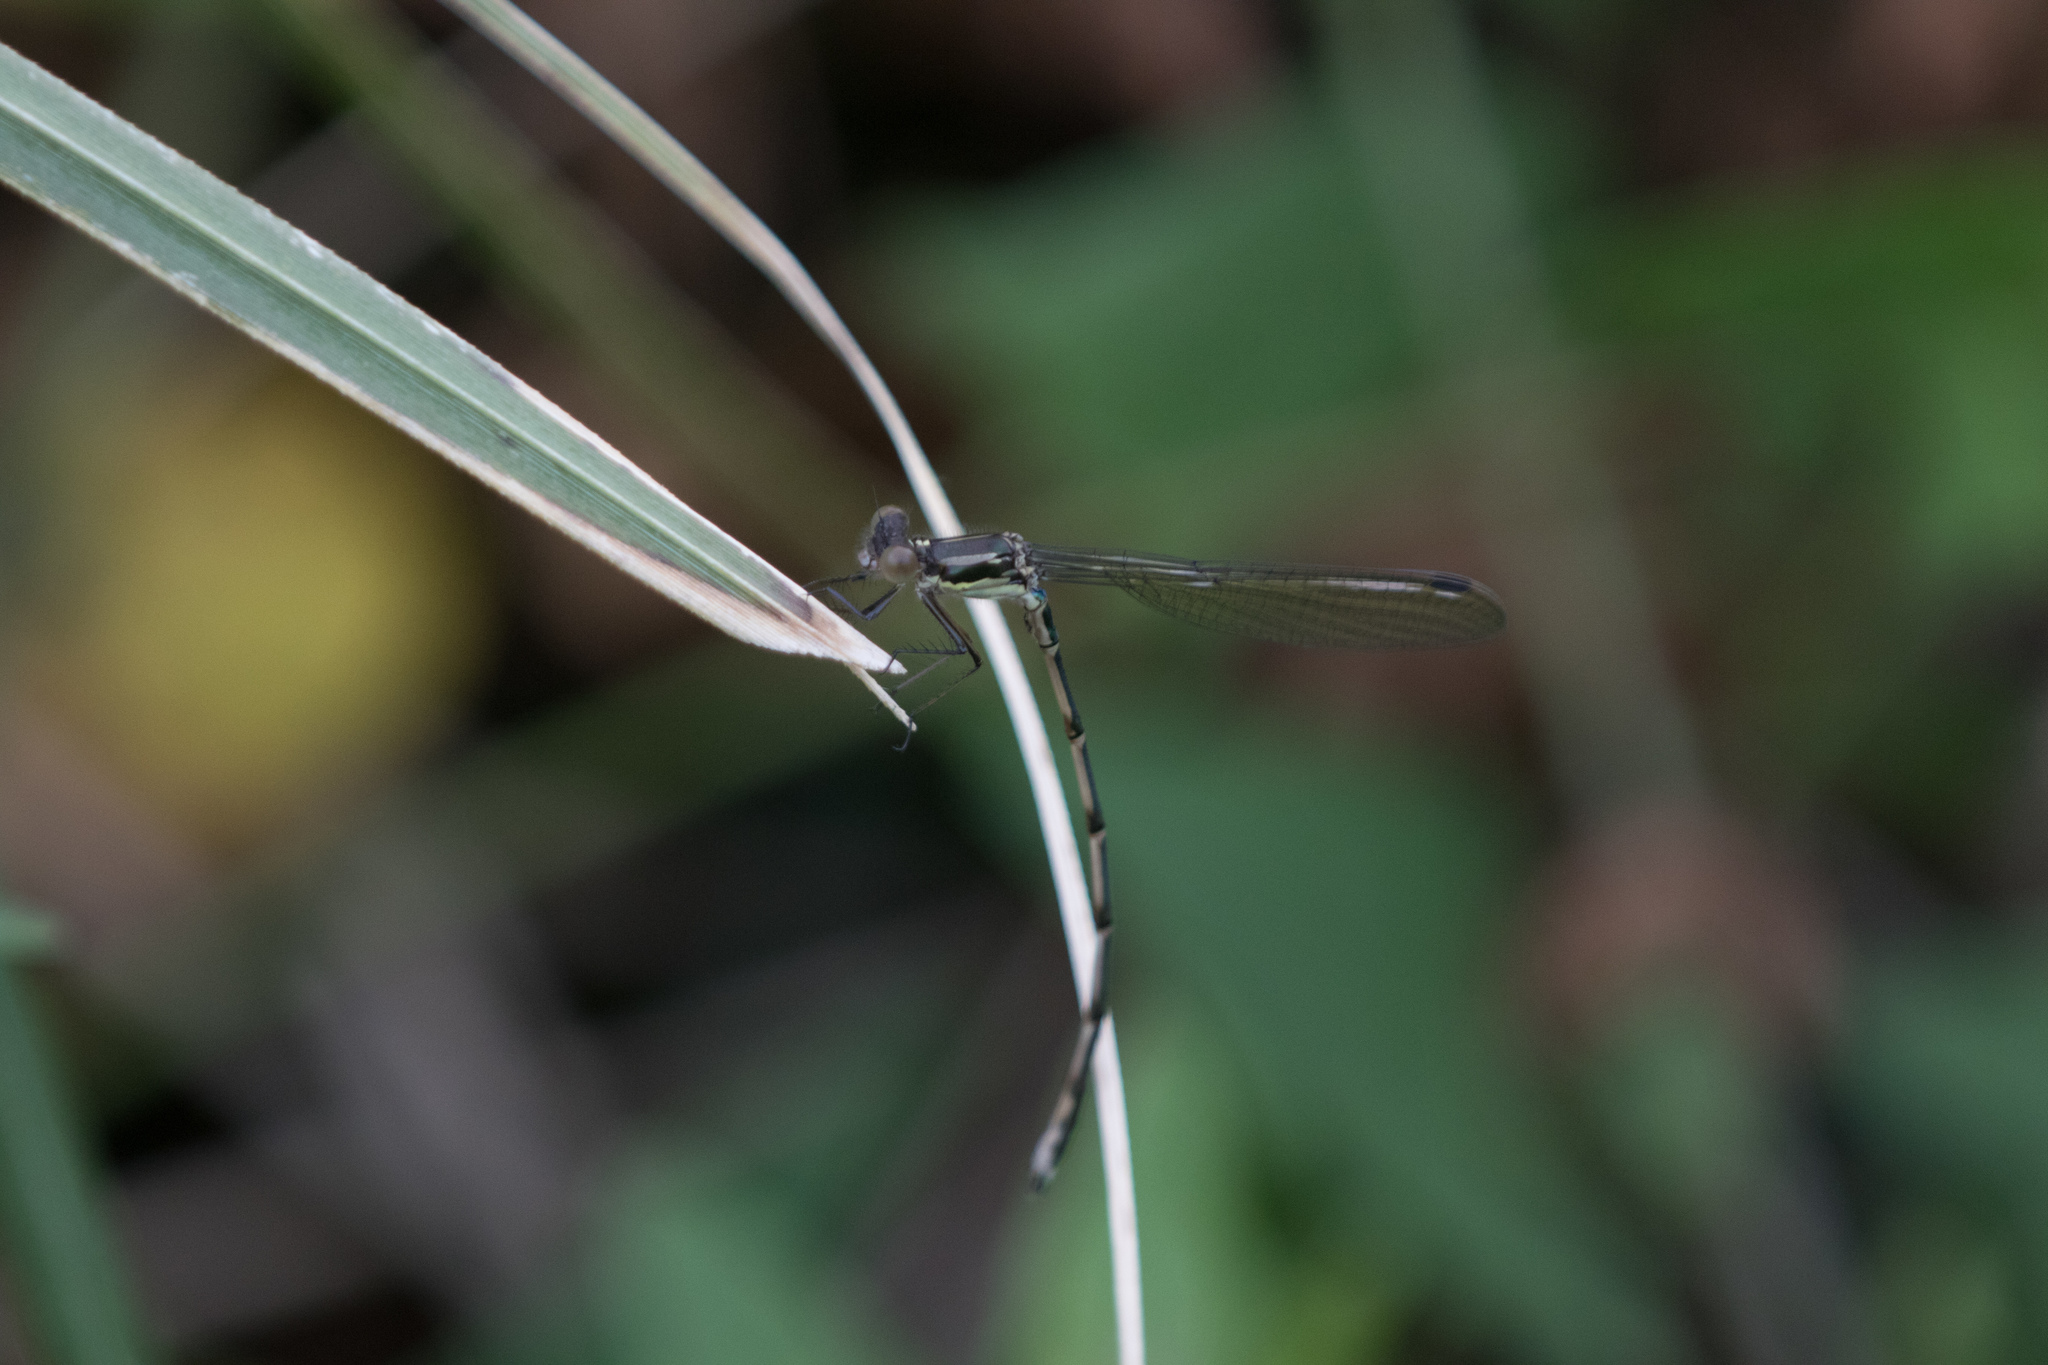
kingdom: Animalia
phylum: Arthropoda
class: Insecta
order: Odonata
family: Lestidae
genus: Austrolestes
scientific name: Austrolestes colensonis
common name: Blue damselfly
